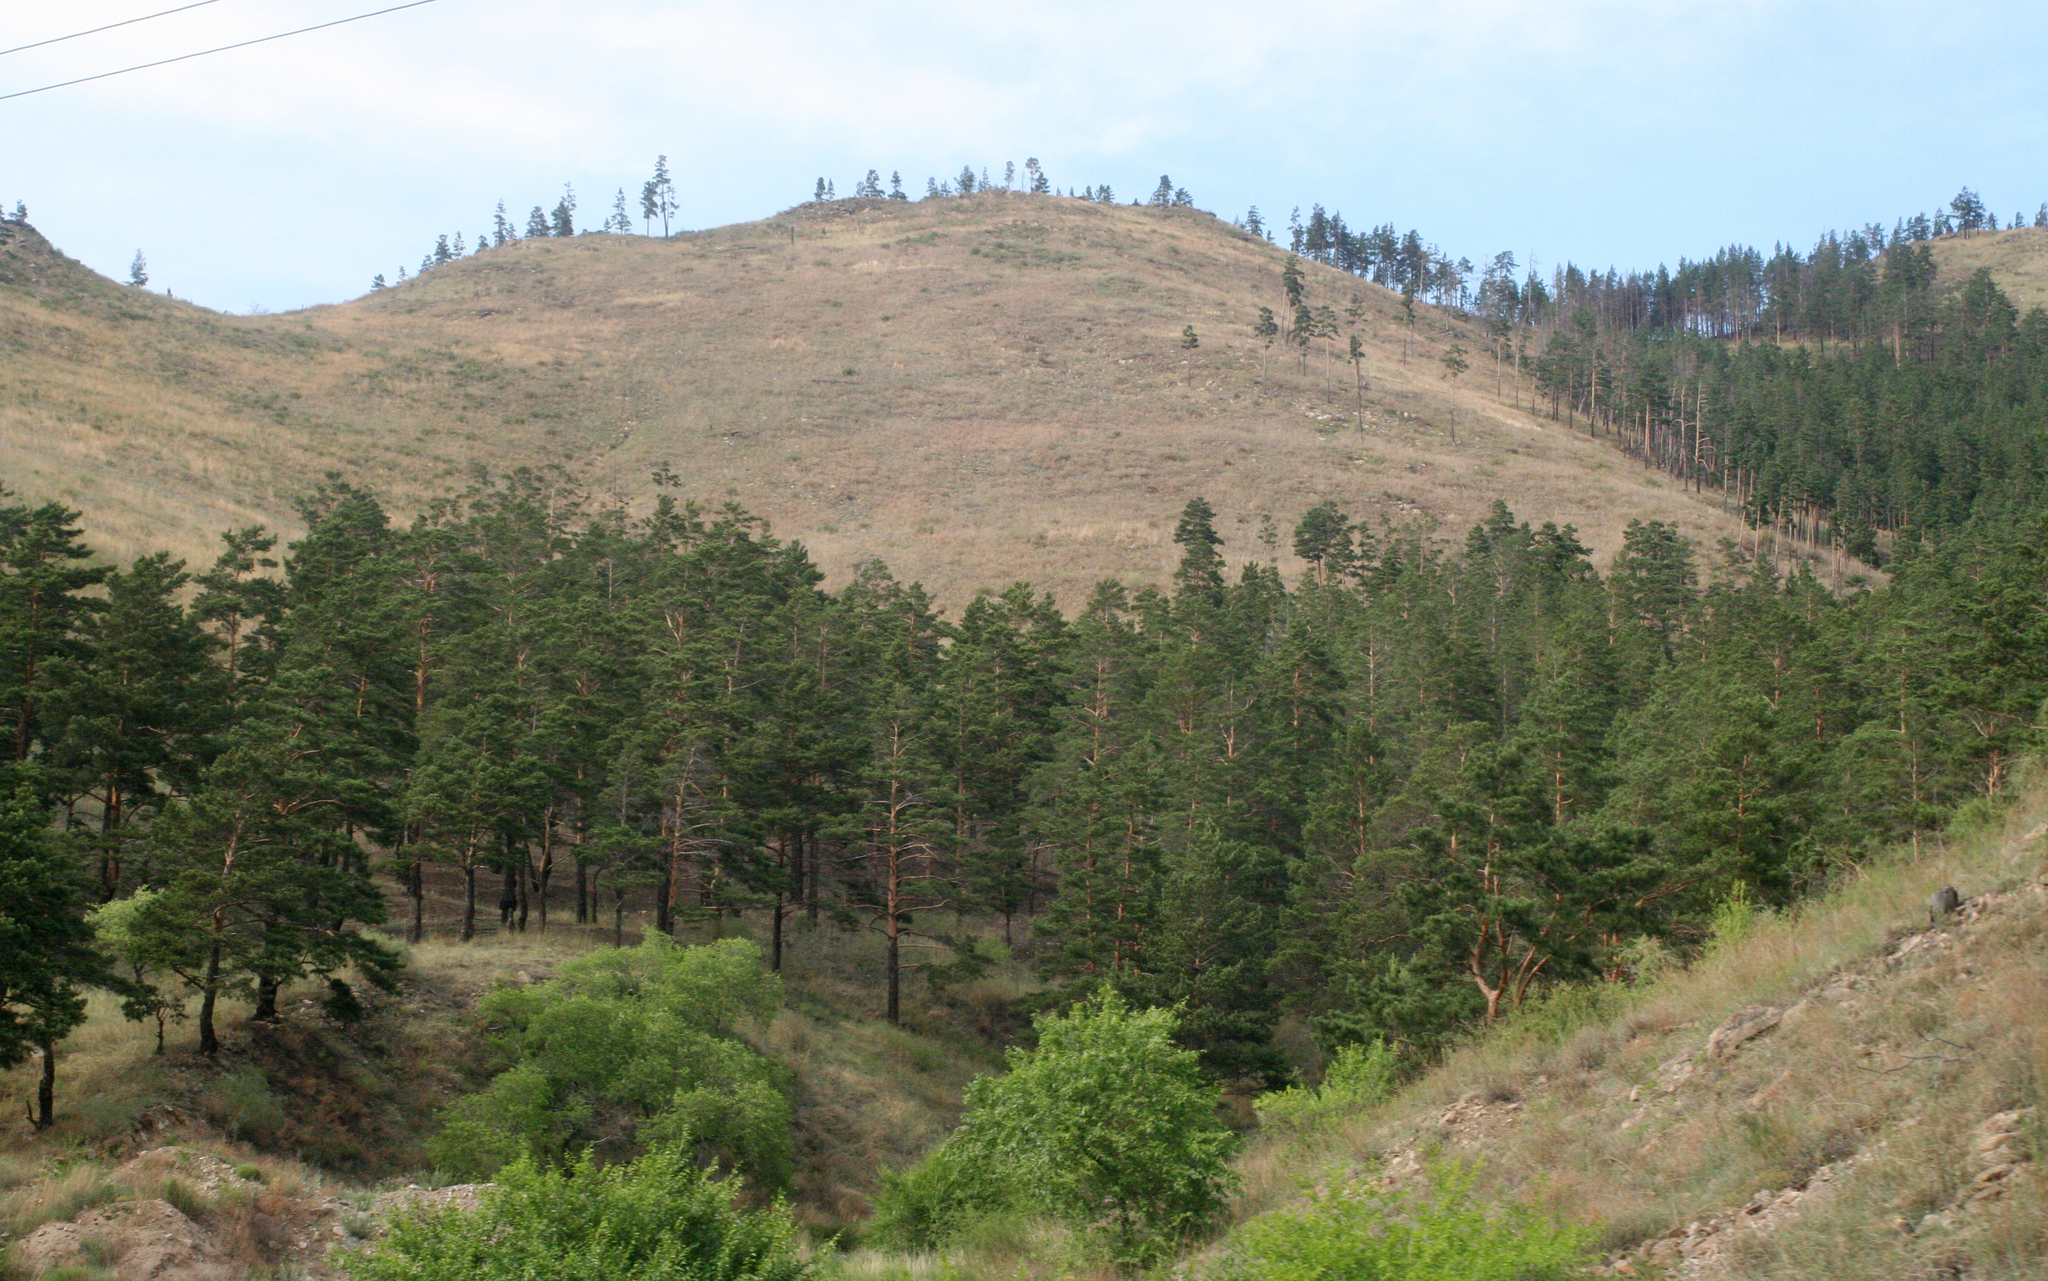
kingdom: Plantae
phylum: Tracheophyta
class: Pinopsida
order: Pinales
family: Pinaceae
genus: Pinus
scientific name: Pinus sylvestris
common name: Scots pine
